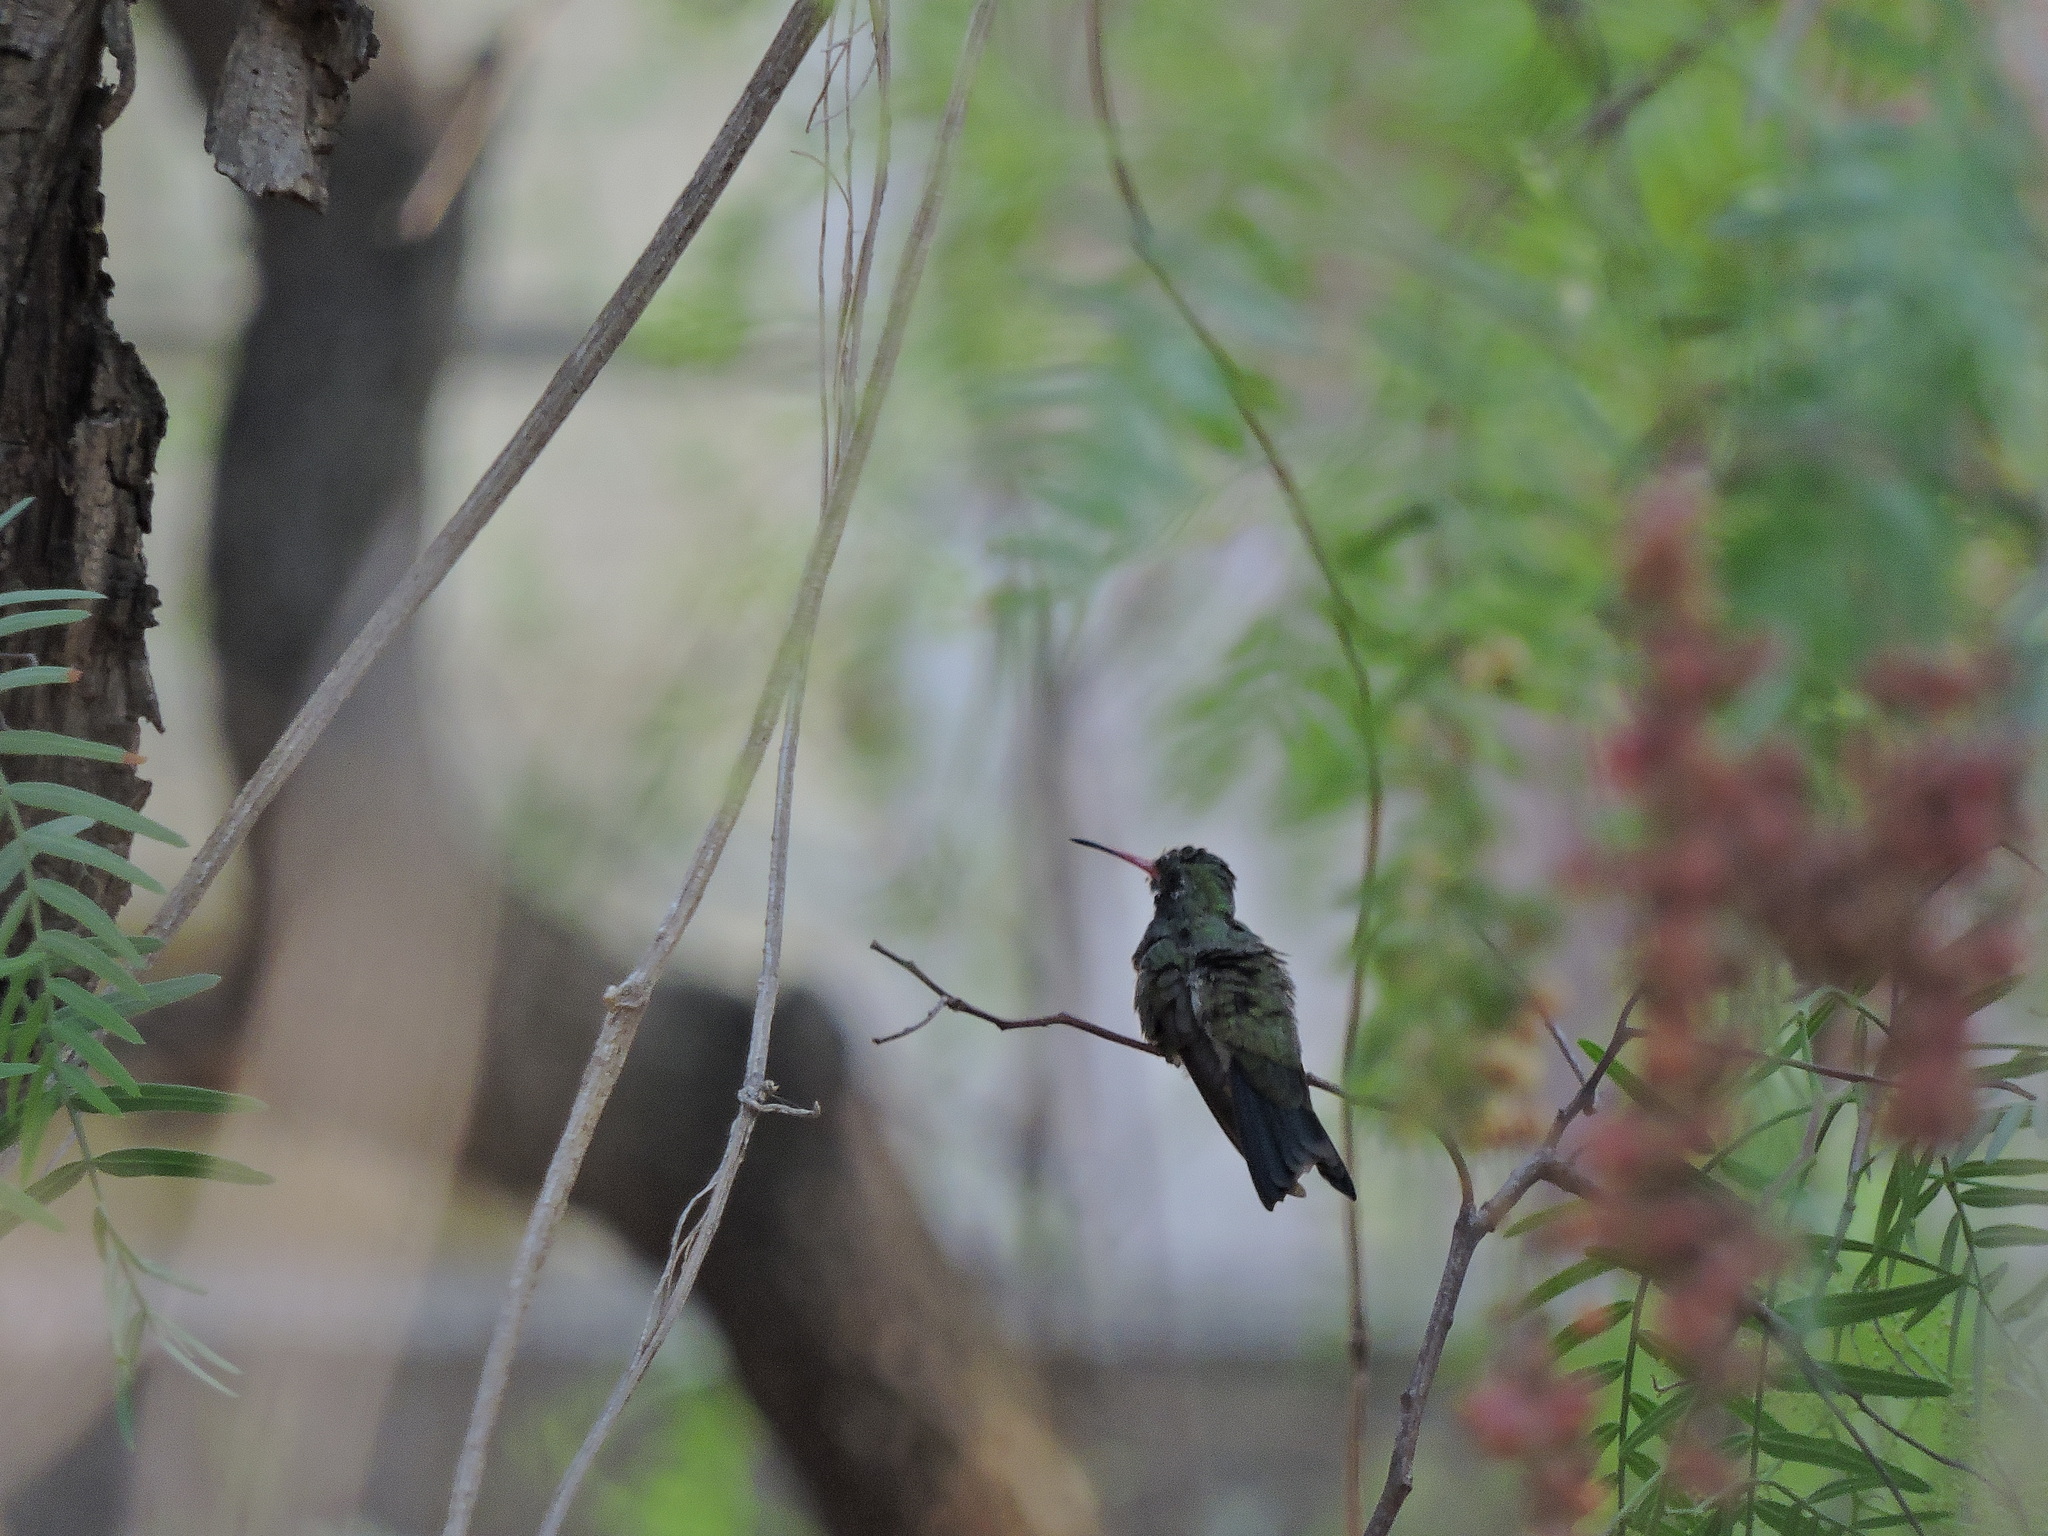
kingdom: Animalia
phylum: Chordata
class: Aves
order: Apodiformes
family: Trochilidae
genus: Cynanthus
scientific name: Cynanthus latirostris
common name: Broad-billed hummingbird
